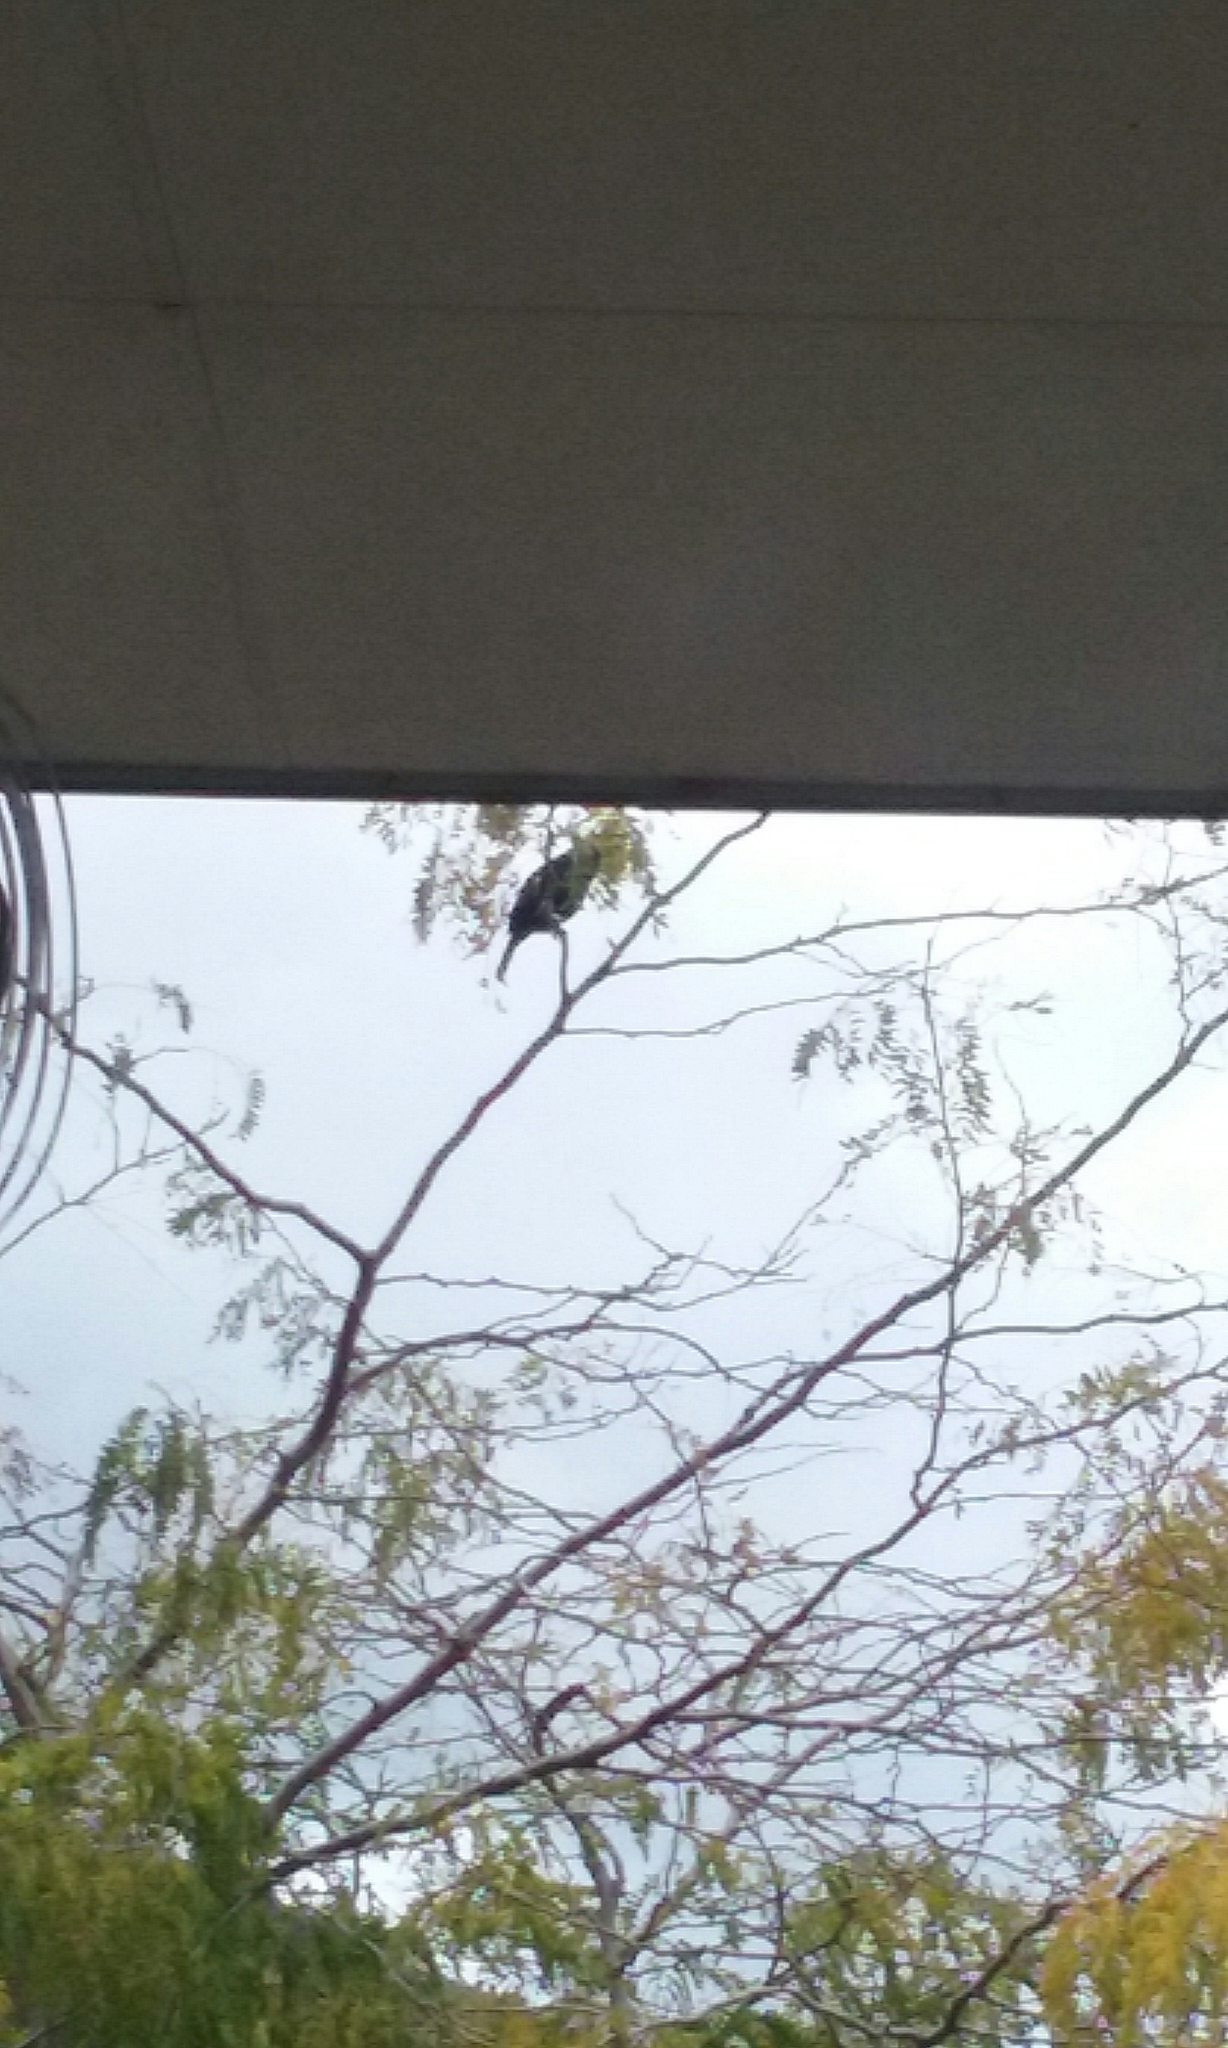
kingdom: Animalia
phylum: Chordata
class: Aves
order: Passeriformes
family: Meliphagidae
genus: Prosthemadera
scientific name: Prosthemadera novaeseelandiae
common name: Tui
